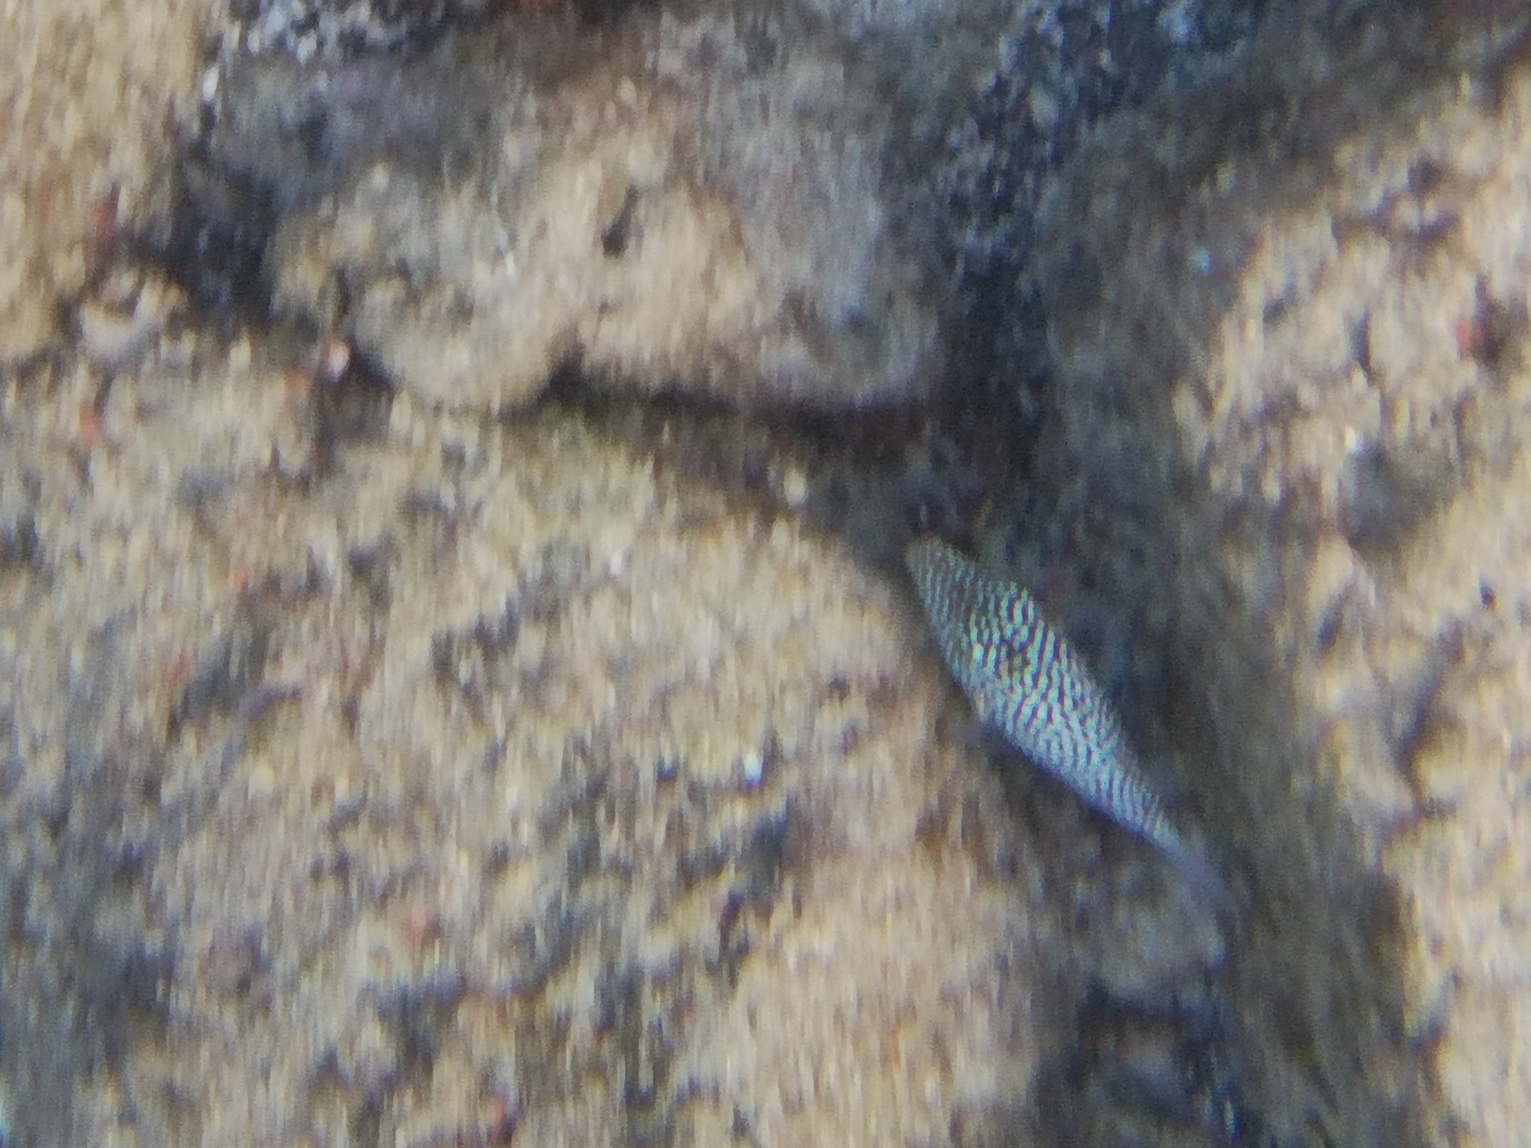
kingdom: Animalia
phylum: Chordata
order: Tetraodontiformes
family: Tetraodontidae
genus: Canthigaster
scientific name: Canthigaster jactator
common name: Hawaiian whitespotted toby
